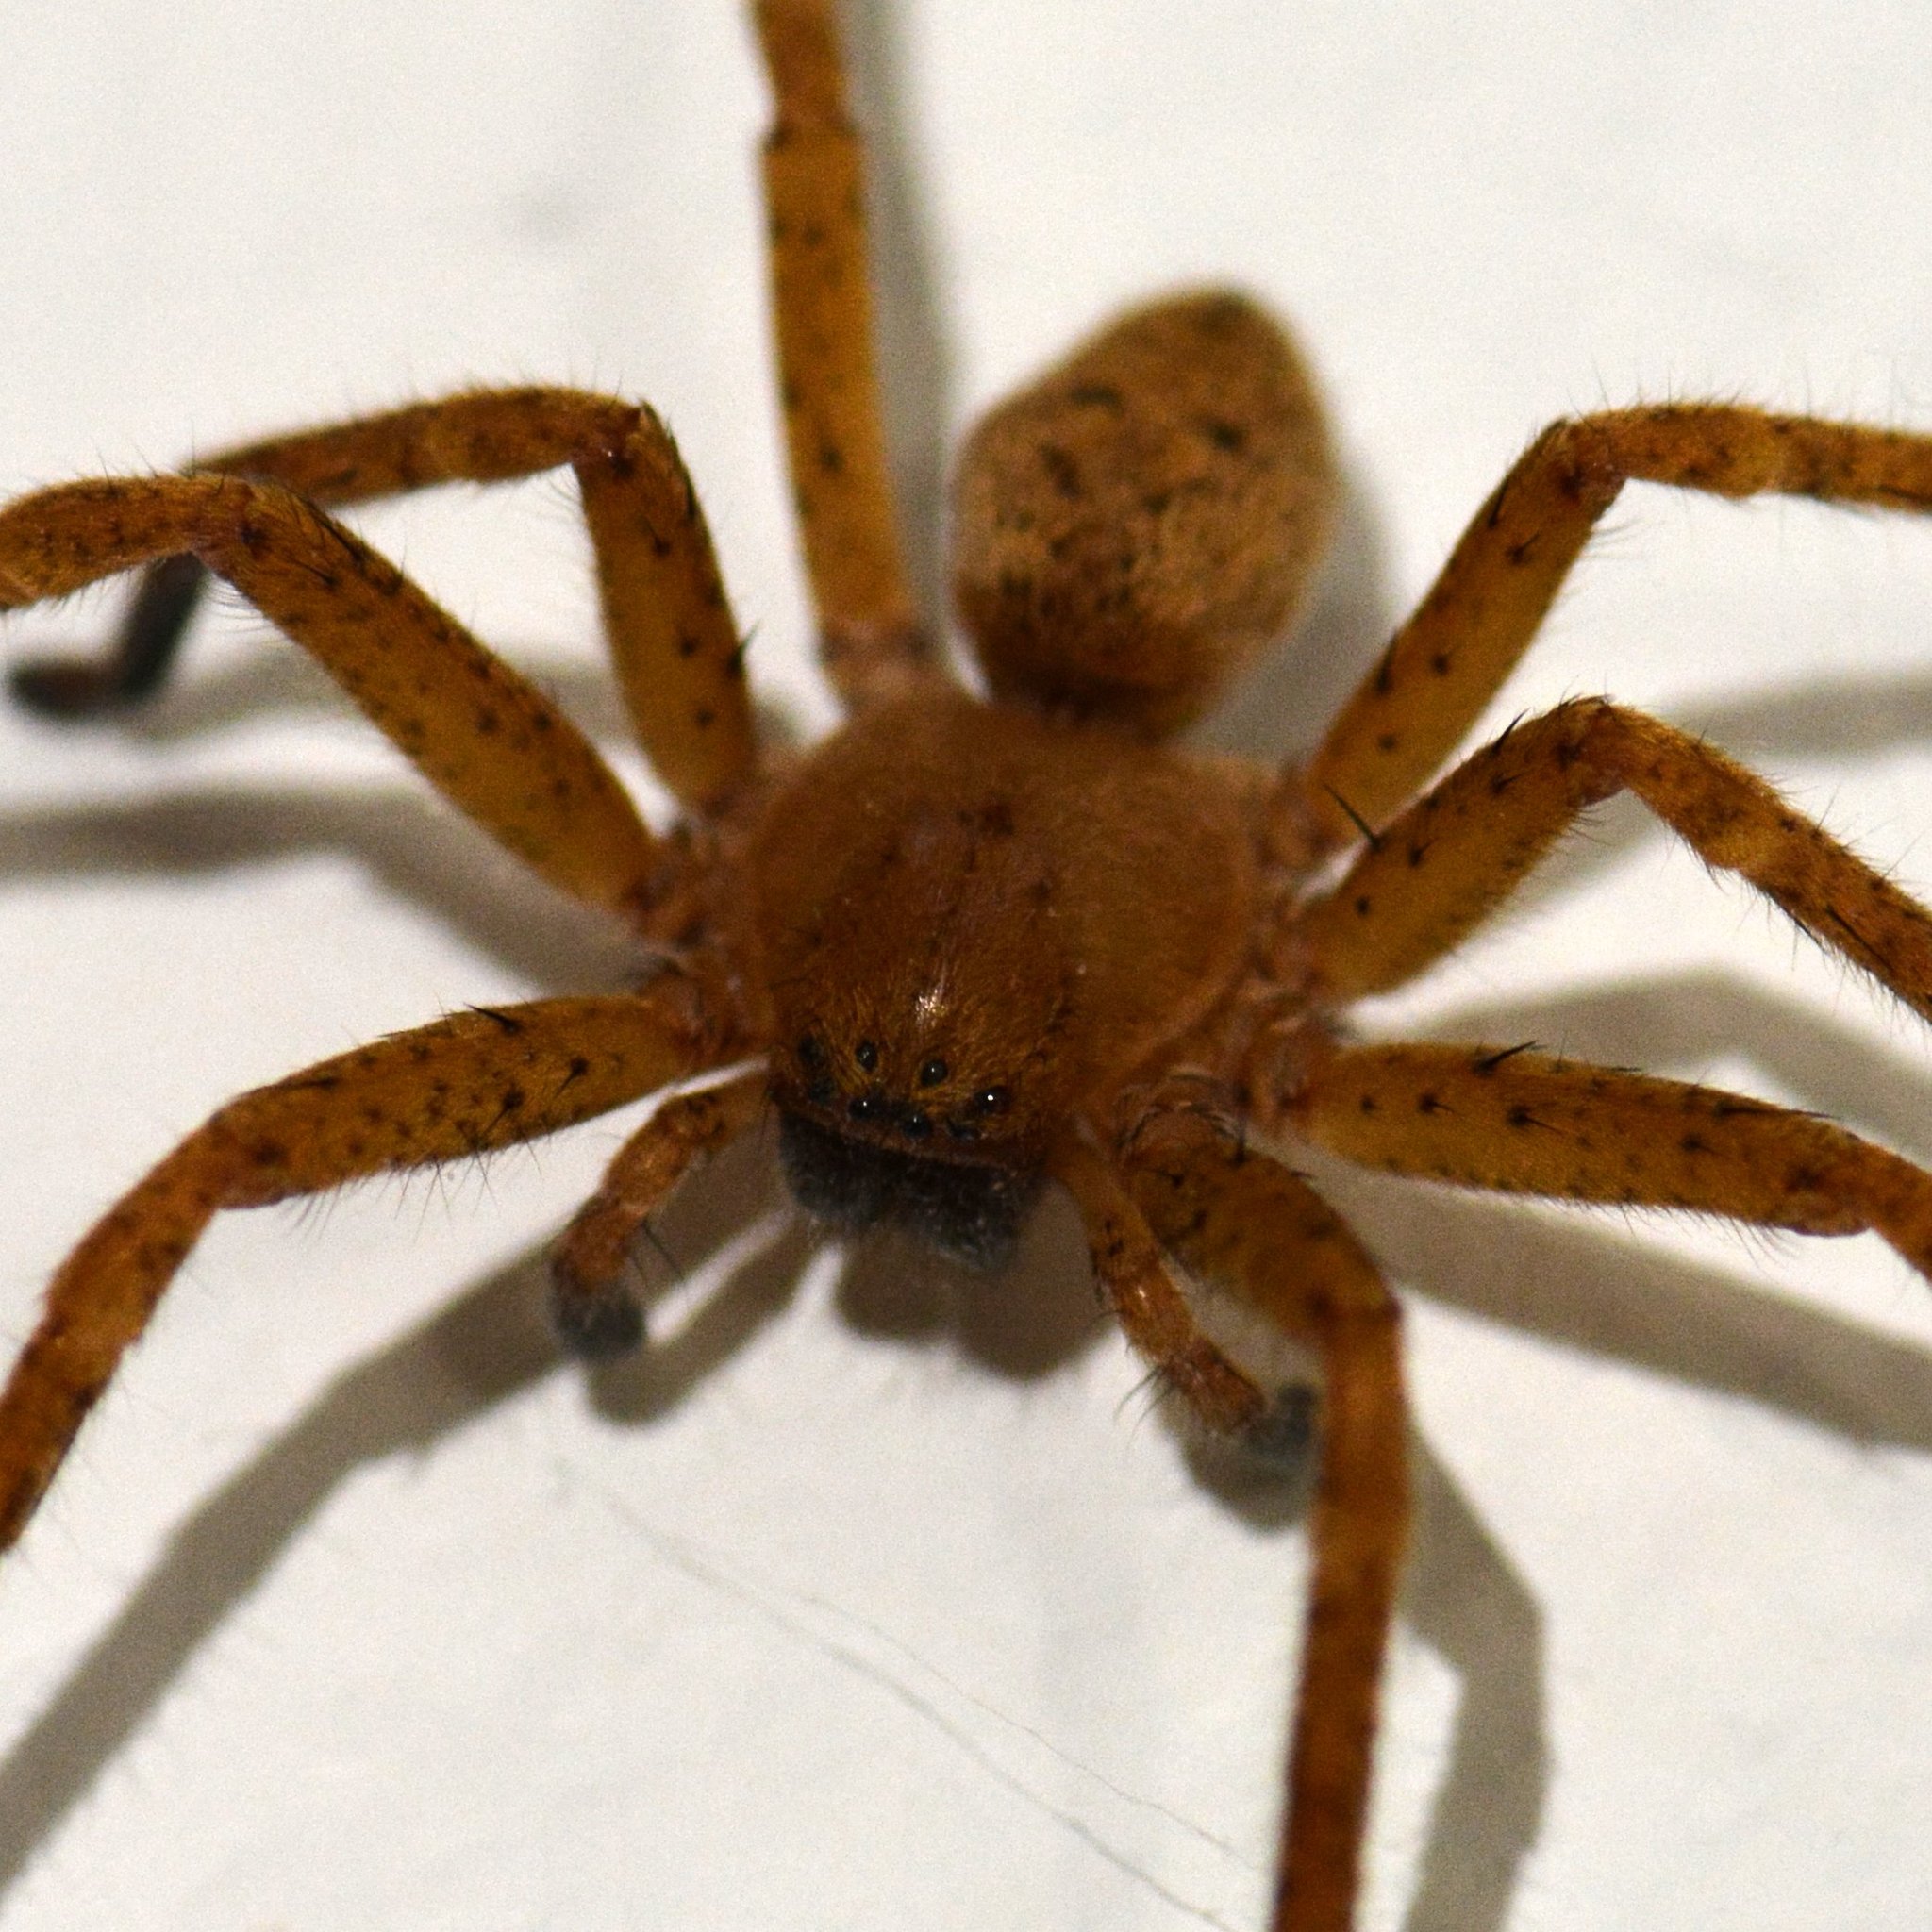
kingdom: Animalia
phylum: Arthropoda
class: Arachnida
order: Araneae
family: Sparassidae
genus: Olios
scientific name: Olios argelasius
